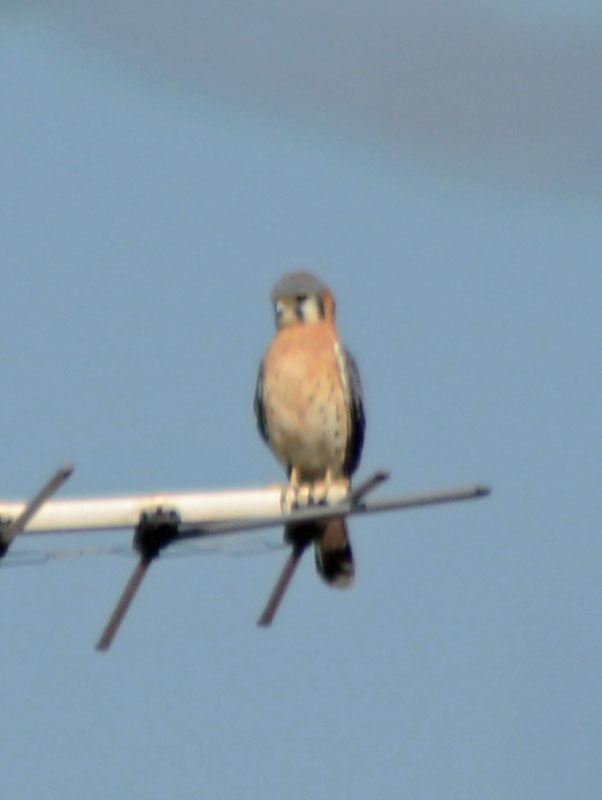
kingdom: Animalia
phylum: Chordata
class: Aves
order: Falconiformes
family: Falconidae
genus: Falco
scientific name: Falco sparverius
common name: American kestrel
